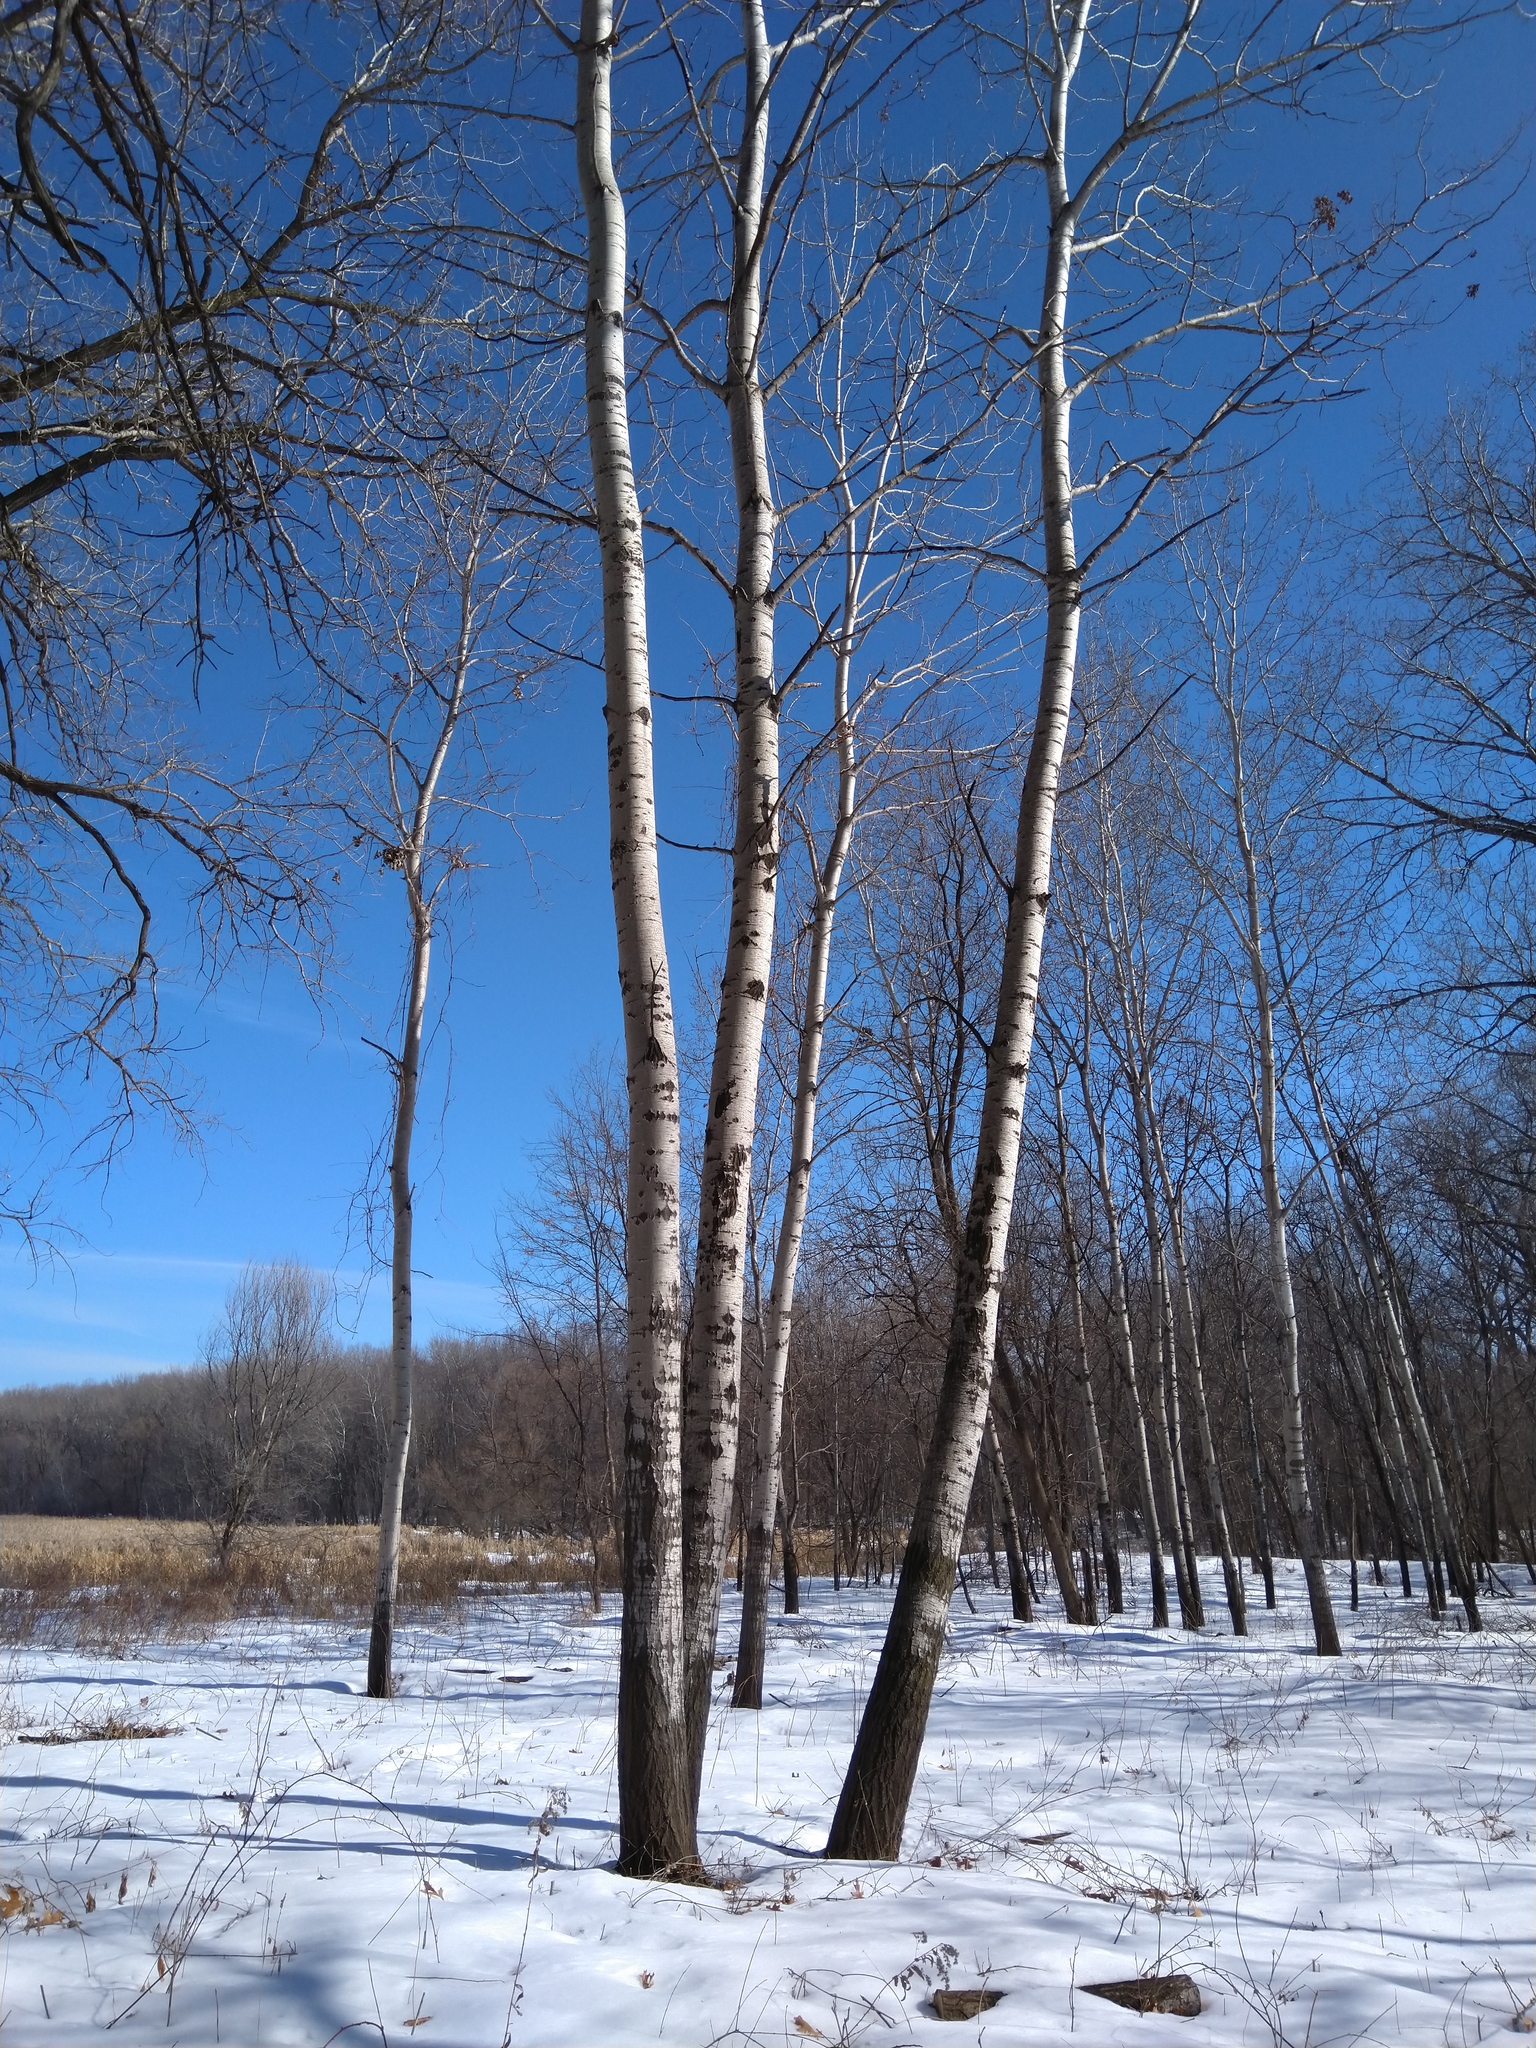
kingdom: Plantae
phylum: Tracheophyta
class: Magnoliopsida
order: Malpighiales
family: Salicaceae
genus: Populus
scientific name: Populus tremuloides
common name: Quaking aspen
